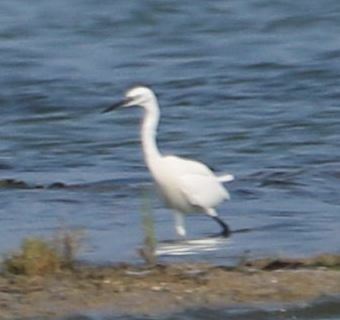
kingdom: Animalia
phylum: Chordata
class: Aves
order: Pelecaniformes
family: Ardeidae
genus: Egretta
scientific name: Egretta garzetta
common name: Little egret
